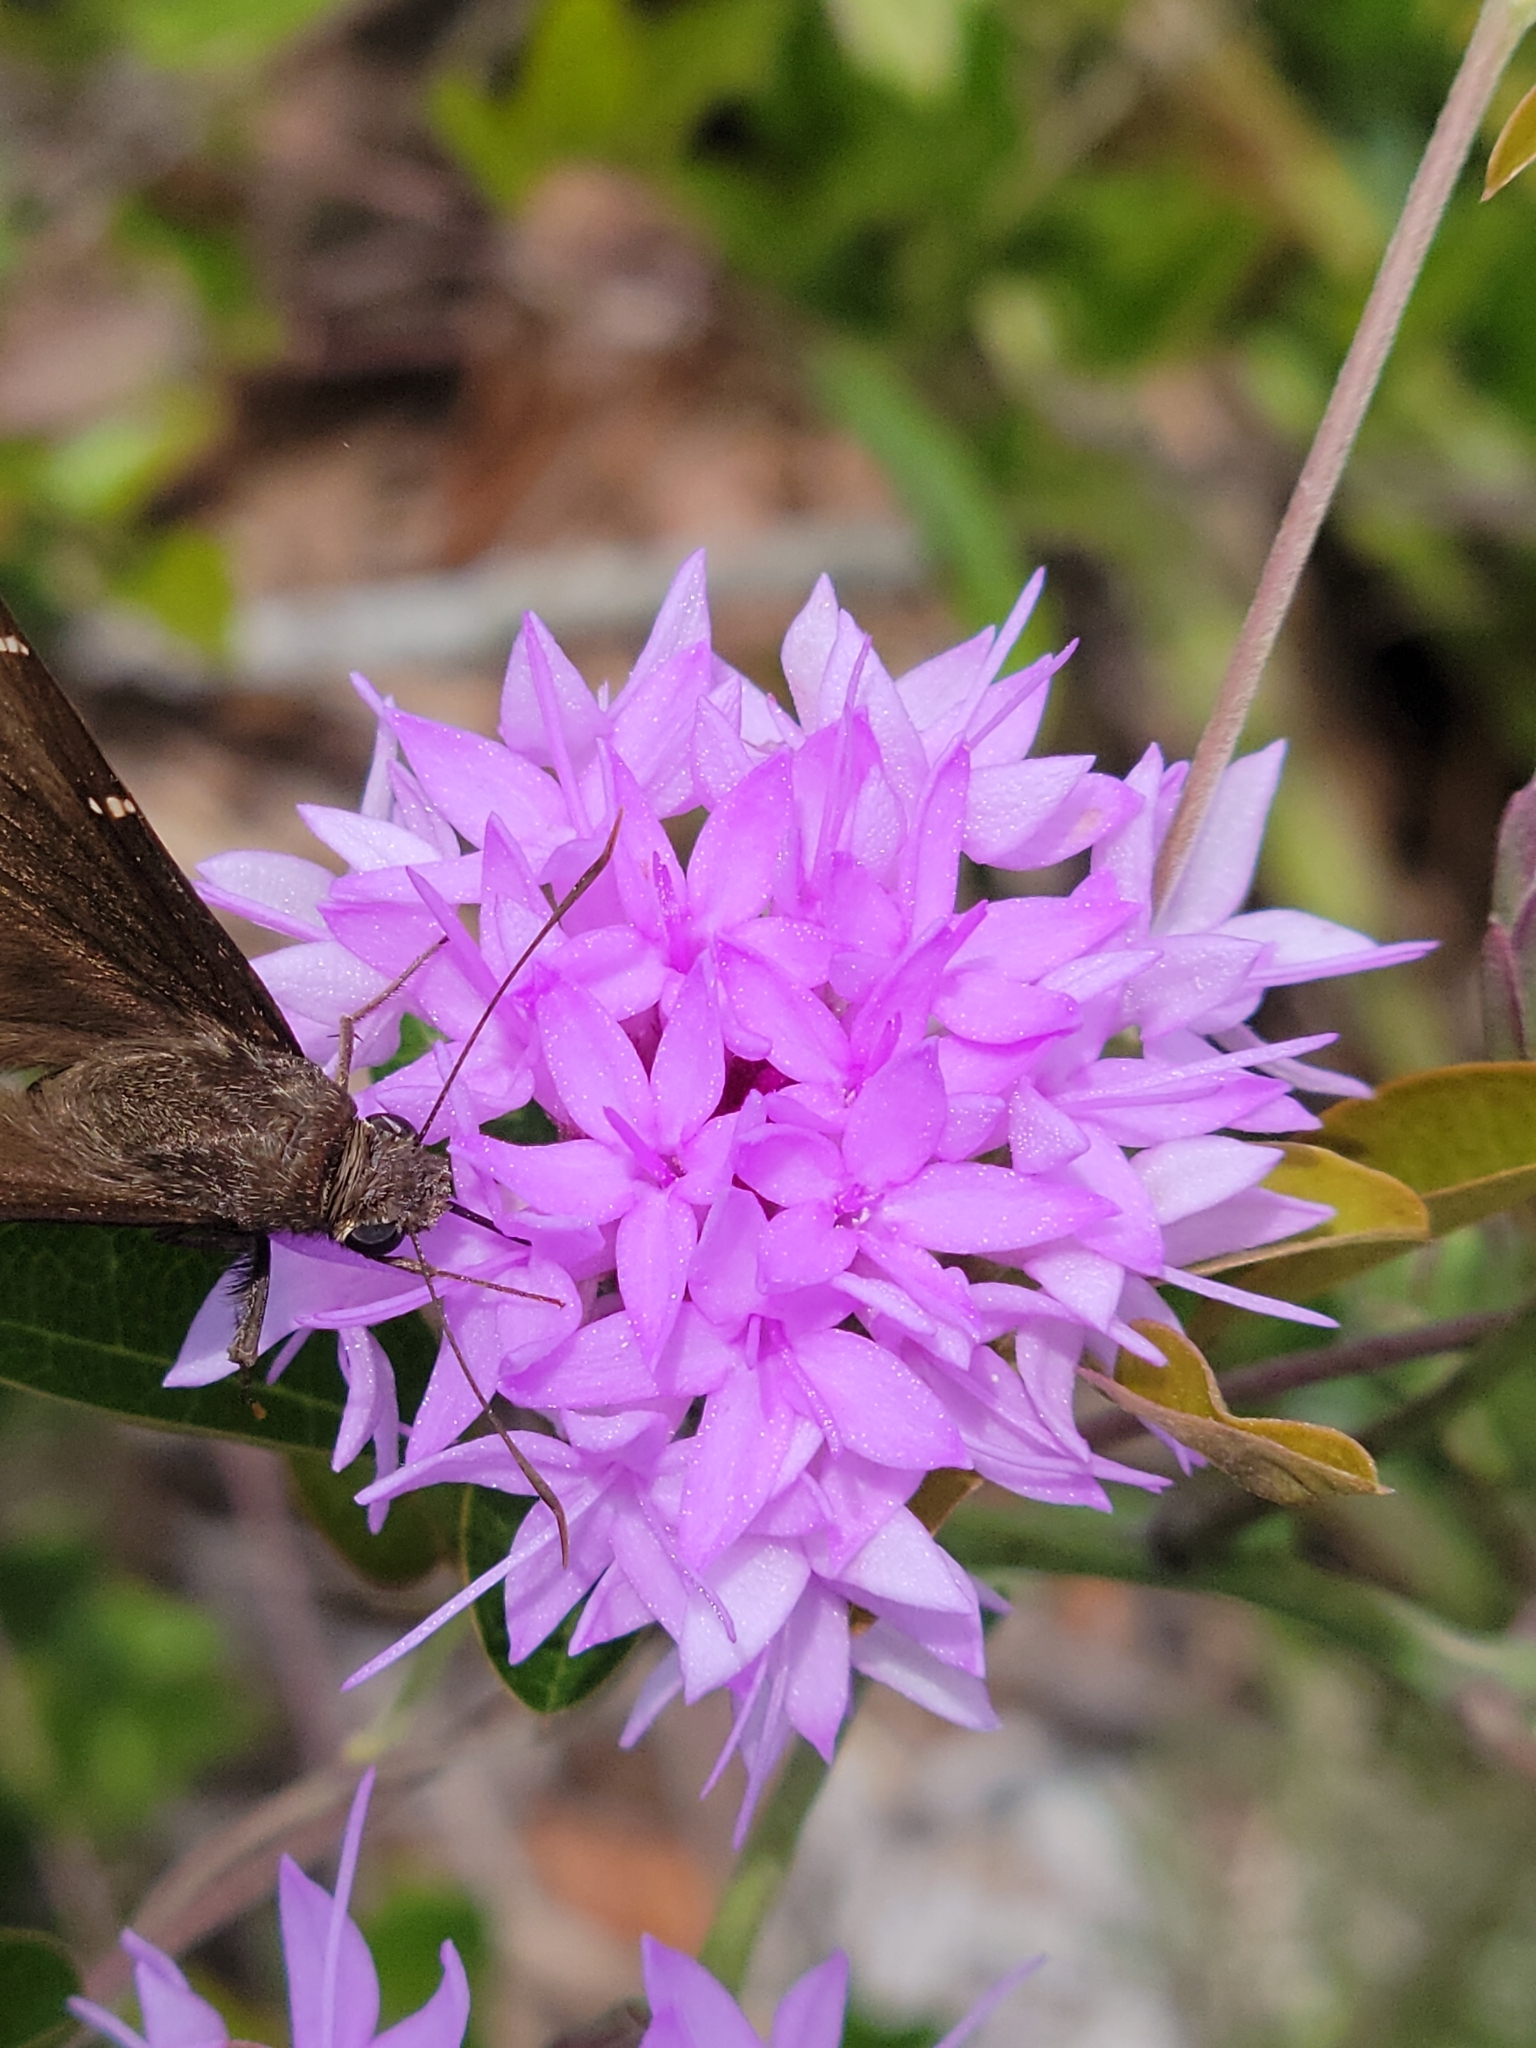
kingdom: Plantae
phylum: Tracheophyta
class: Magnoliopsida
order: Asterales
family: Asteraceae
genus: Liatris
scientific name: Liatris ohlingerae
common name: Scrub blazingstar
